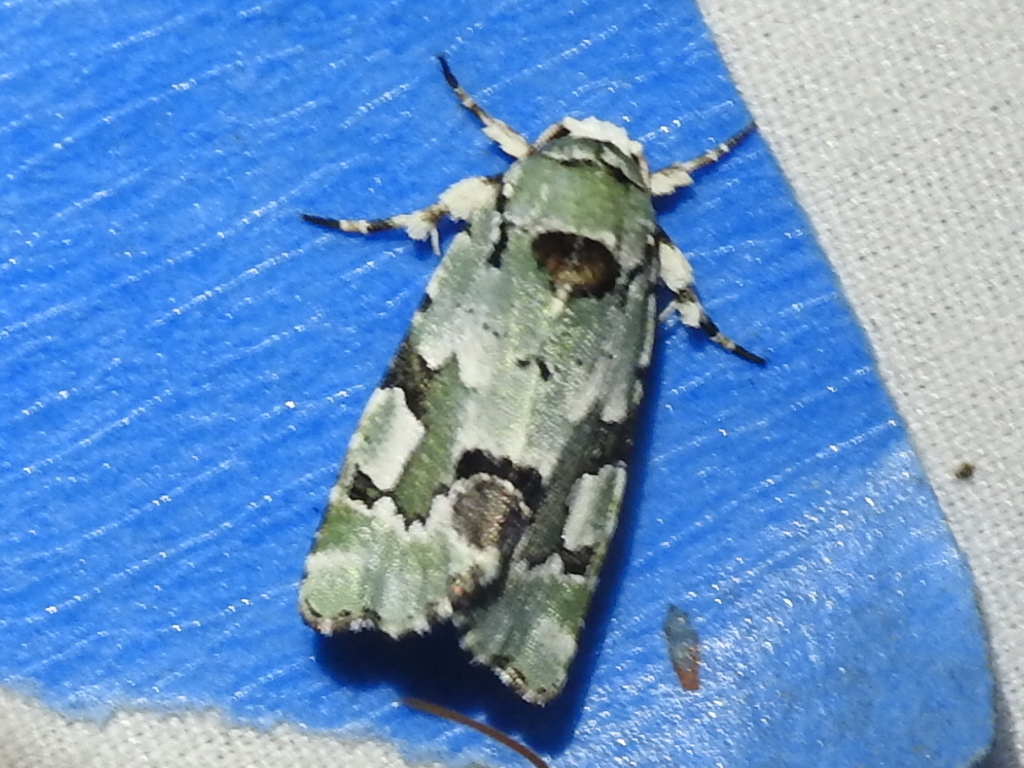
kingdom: Animalia
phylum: Arthropoda
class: Insecta
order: Lepidoptera
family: Noctuidae
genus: Emarginea
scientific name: Emarginea percara
